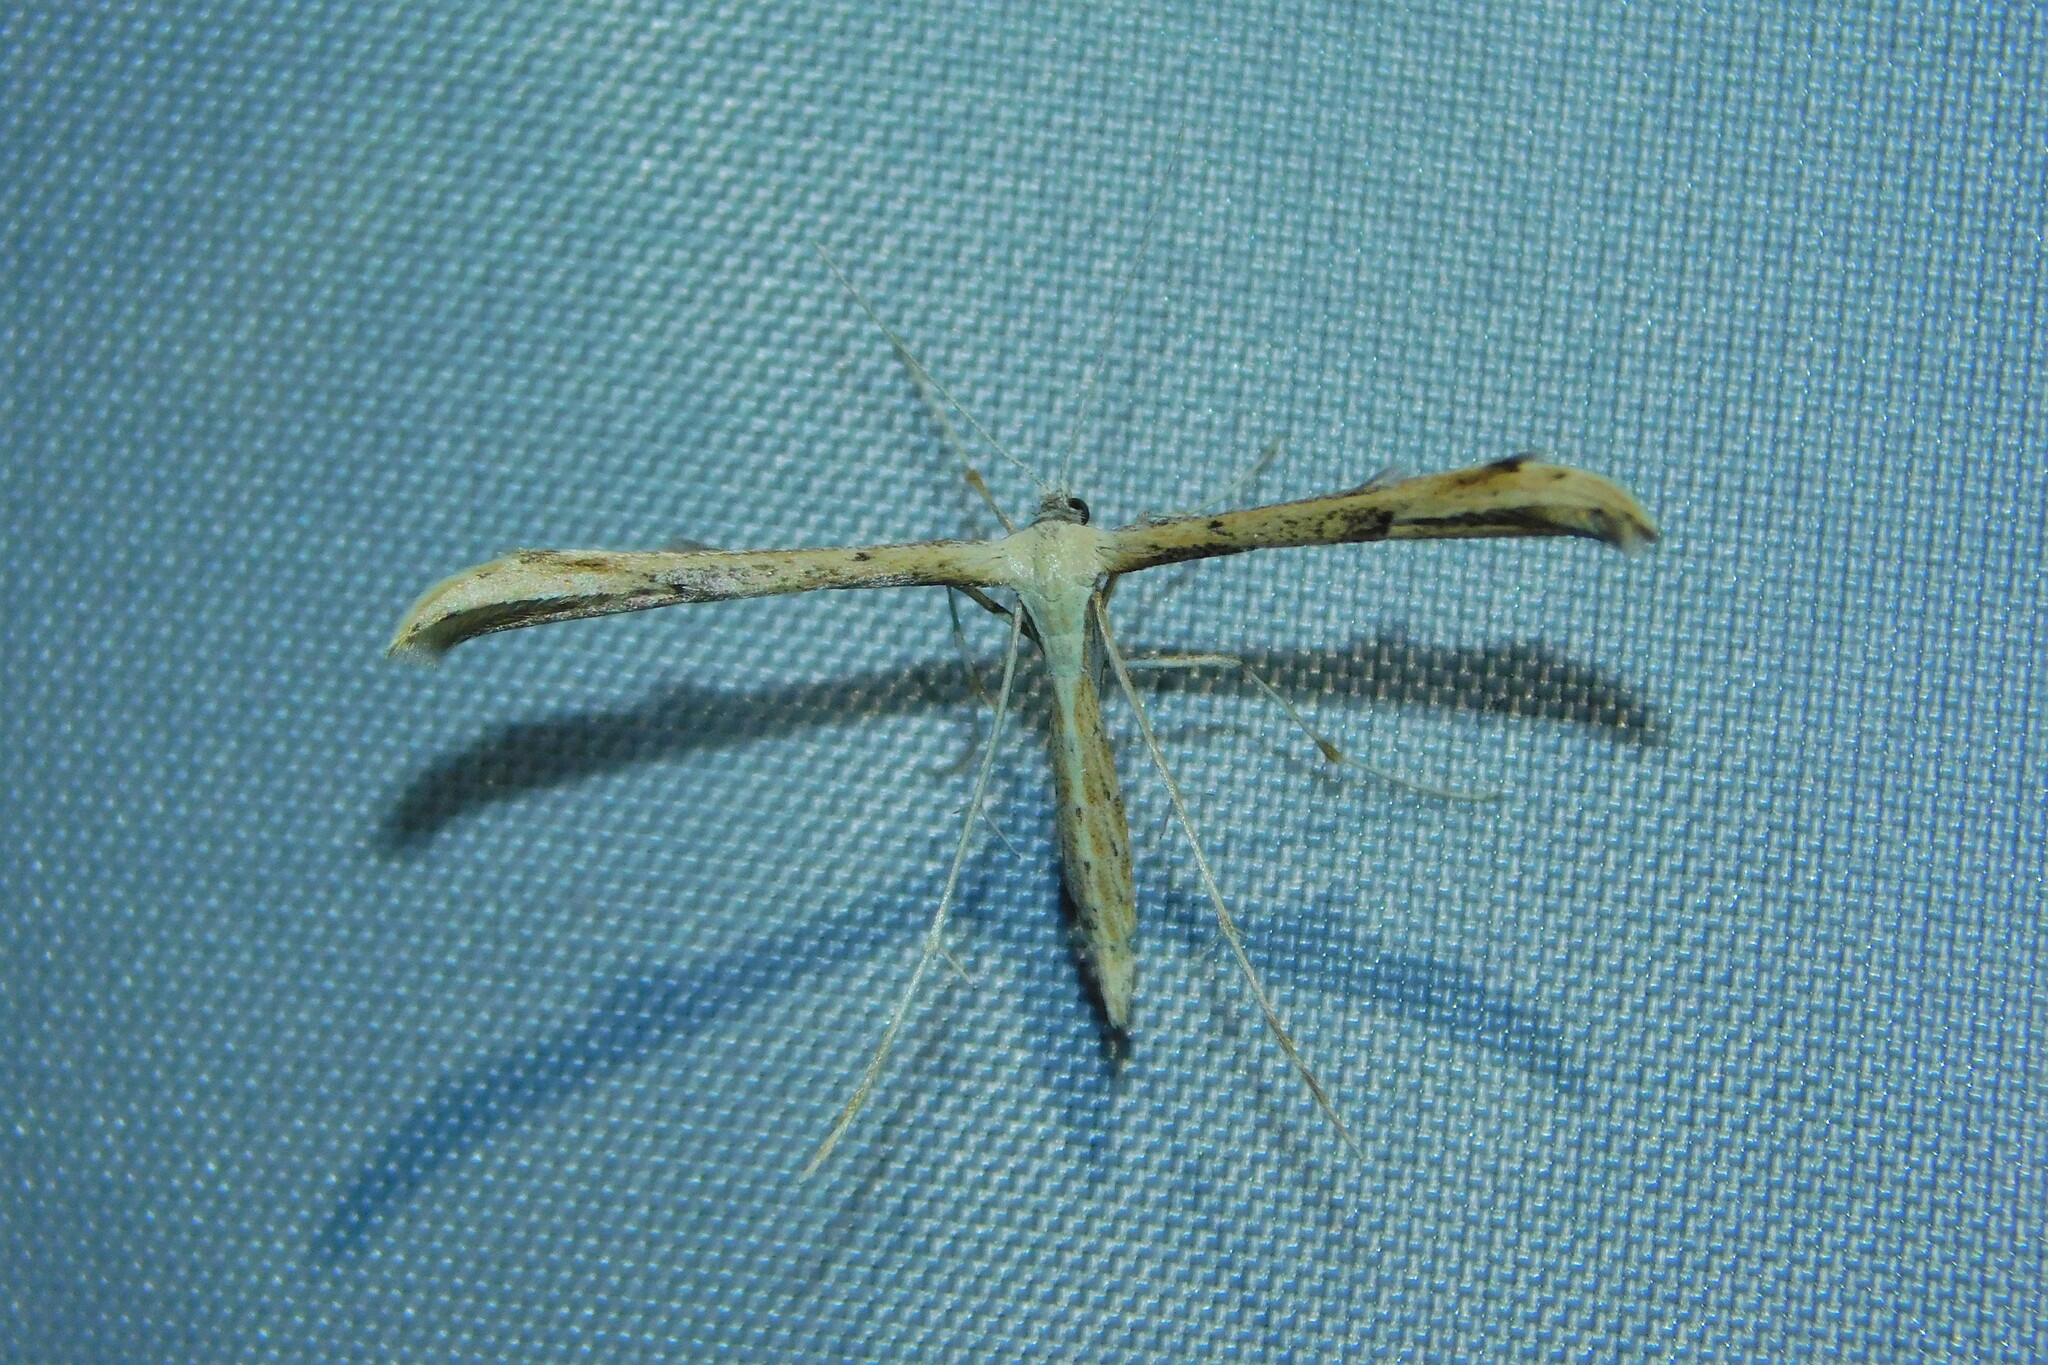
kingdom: Animalia
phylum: Arthropoda
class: Insecta
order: Lepidoptera
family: Pterophoridae
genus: Emmelina
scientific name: Emmelina monodactyla
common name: Common plume
